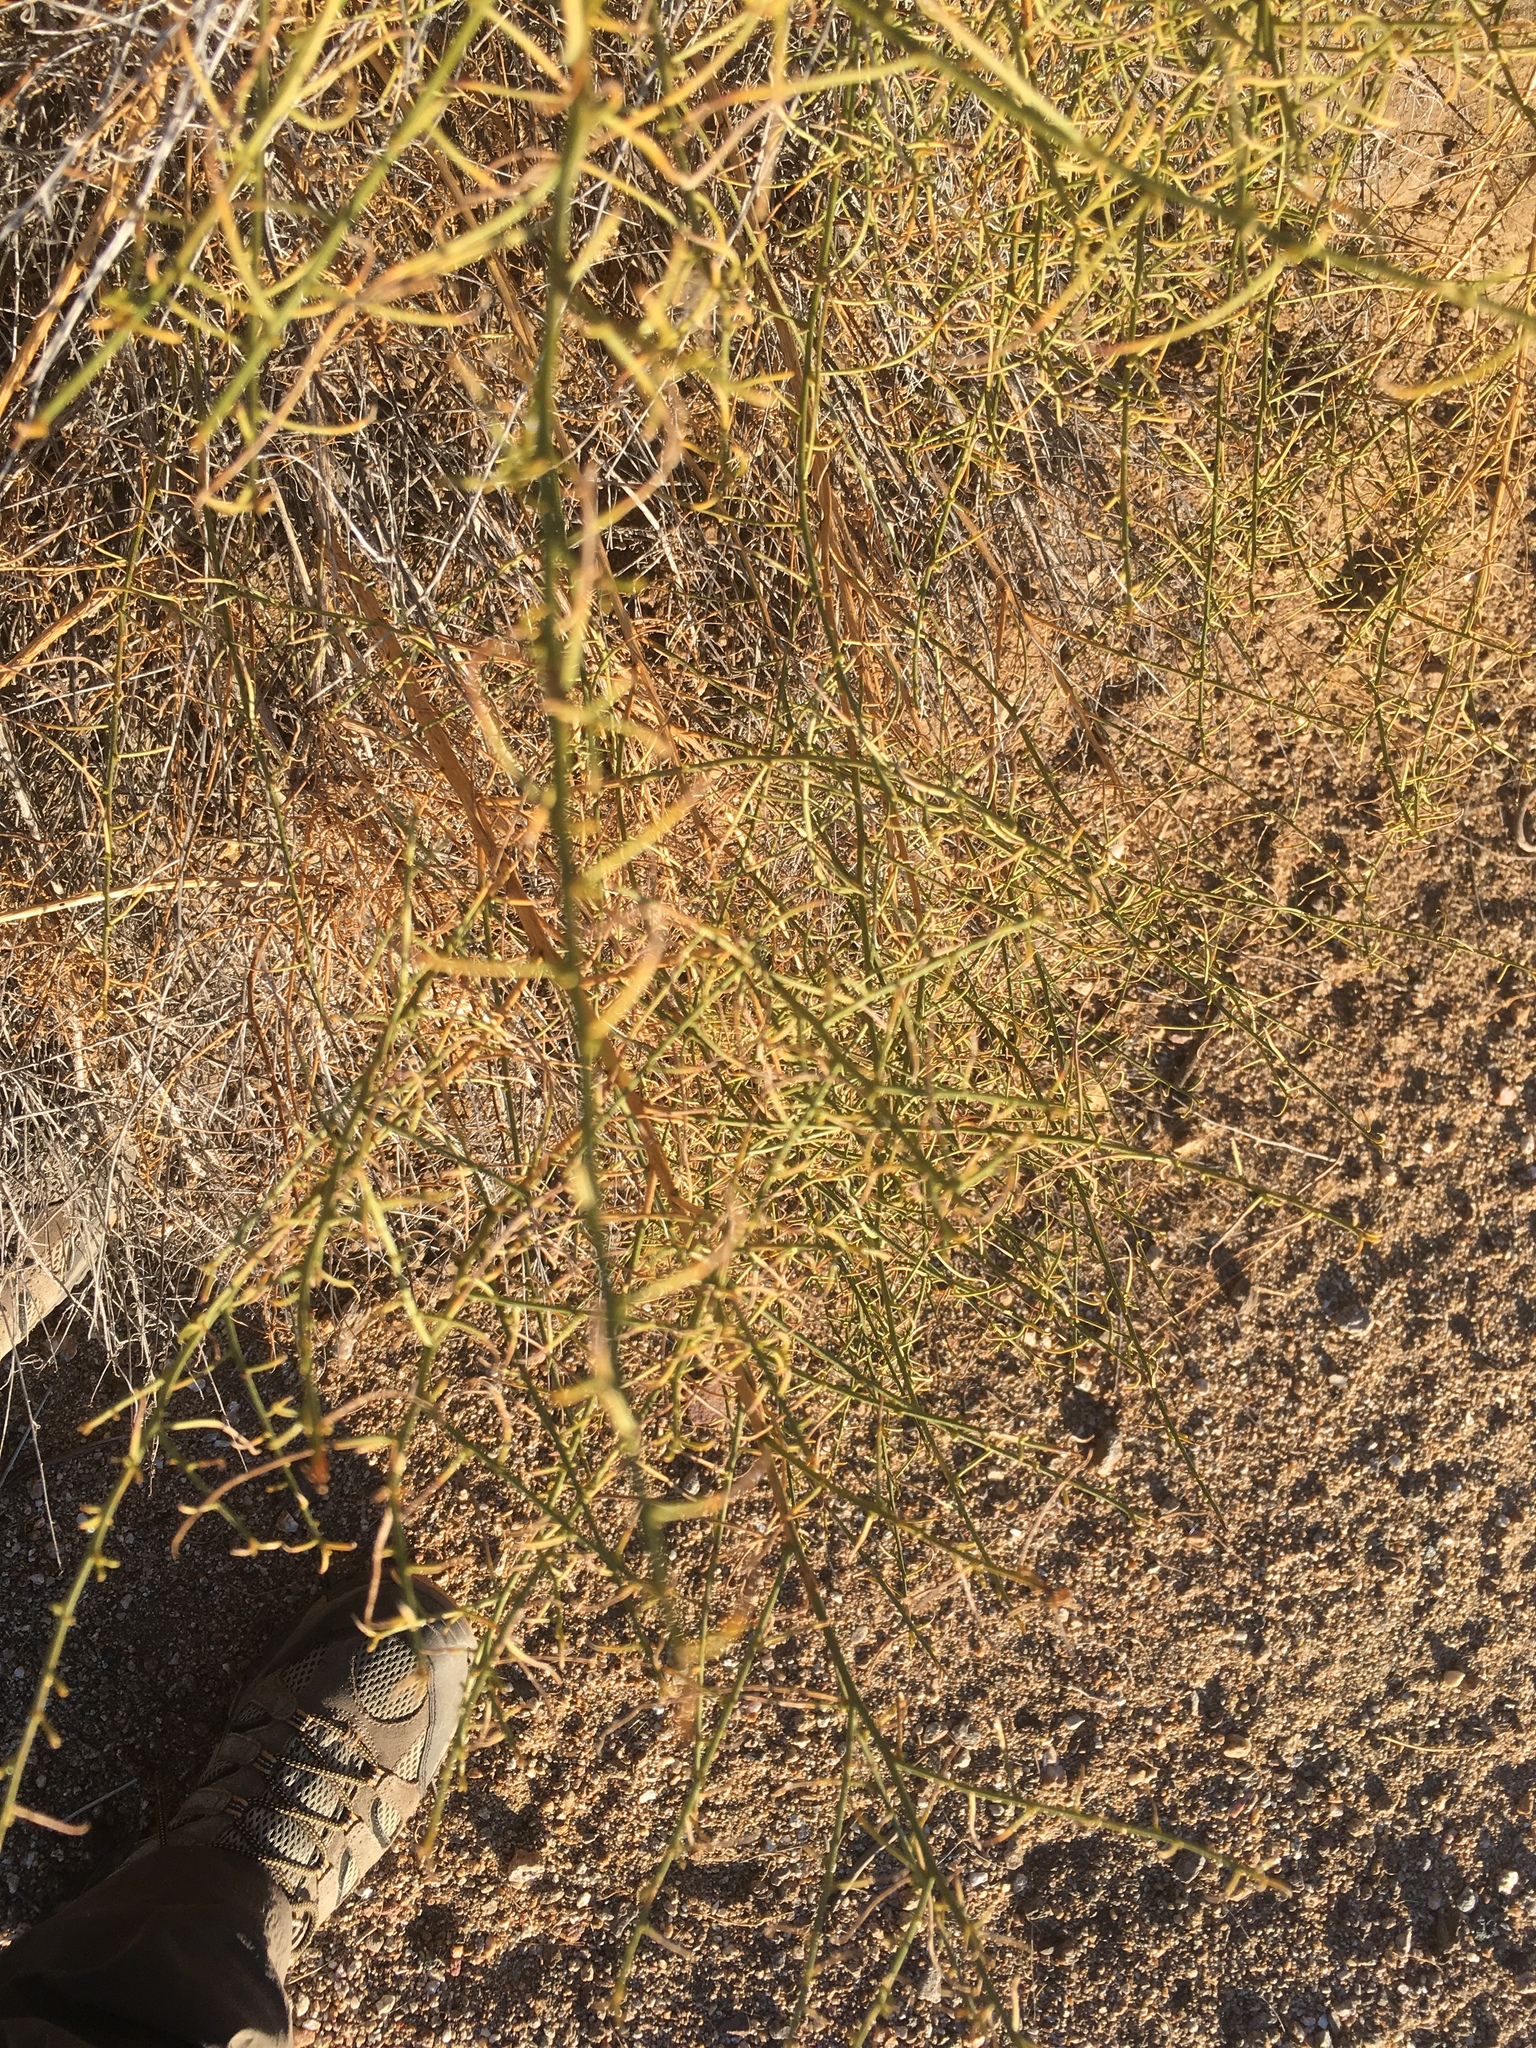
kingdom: Plantae
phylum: Tracheophyta
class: Magnoliopsida
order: Asterales
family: Asteraceae
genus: Ambrosia
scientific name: Ambrosia salsola
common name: Burrobrush
